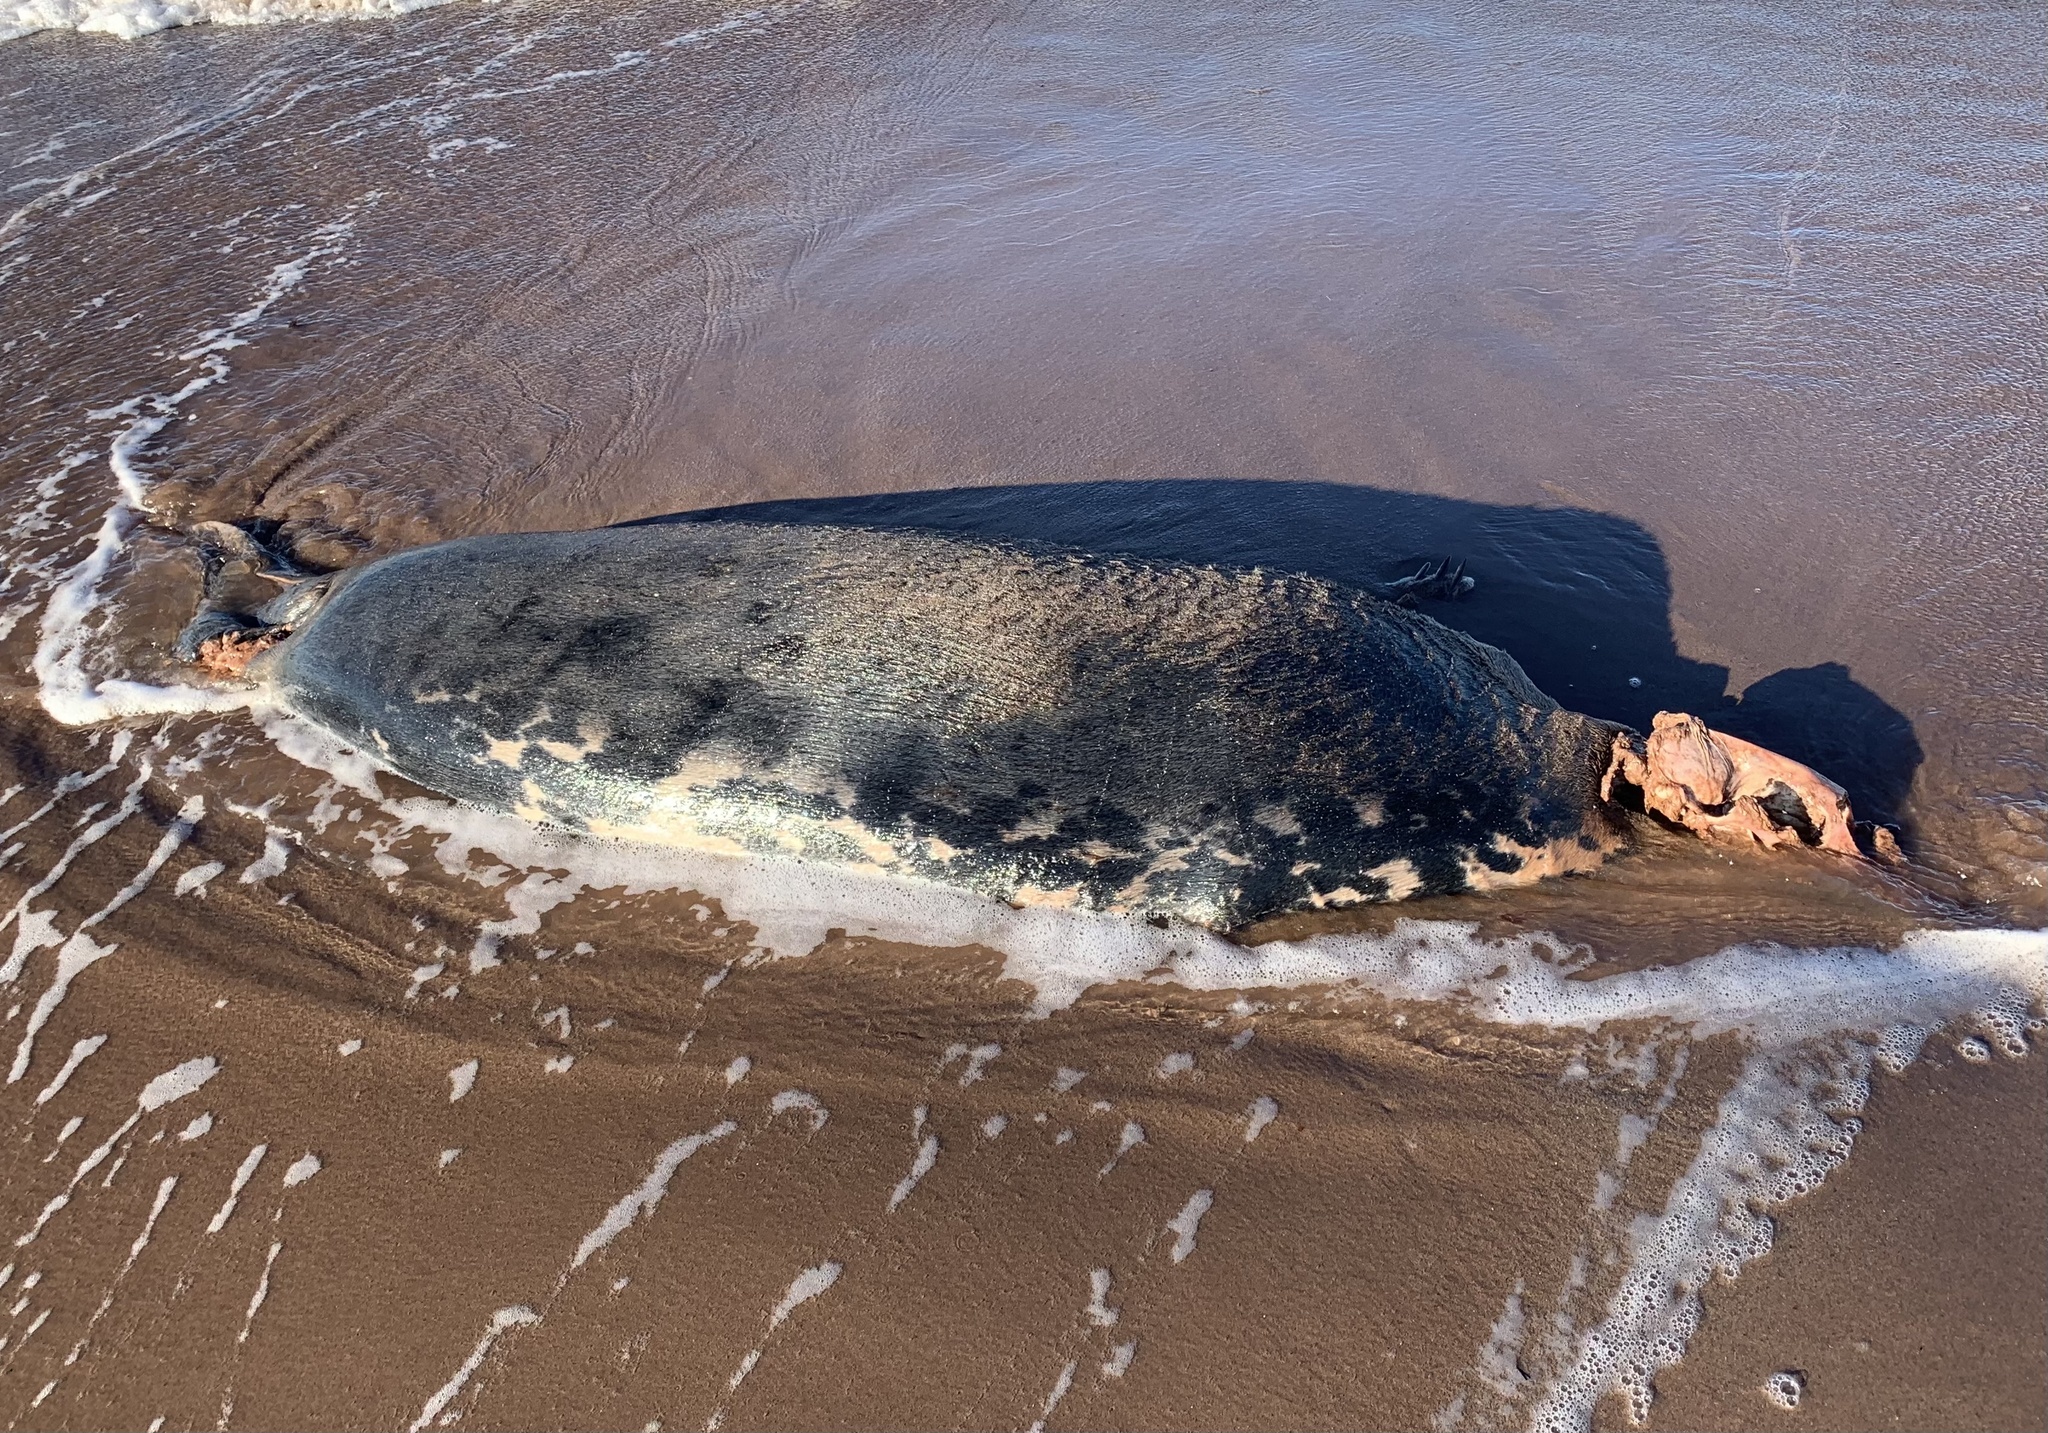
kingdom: Animalia
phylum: Chordata
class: Mammalia
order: Carnivora
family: Phocidae
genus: Halichoerus
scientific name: Halichoerus grypus
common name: Grey seal
